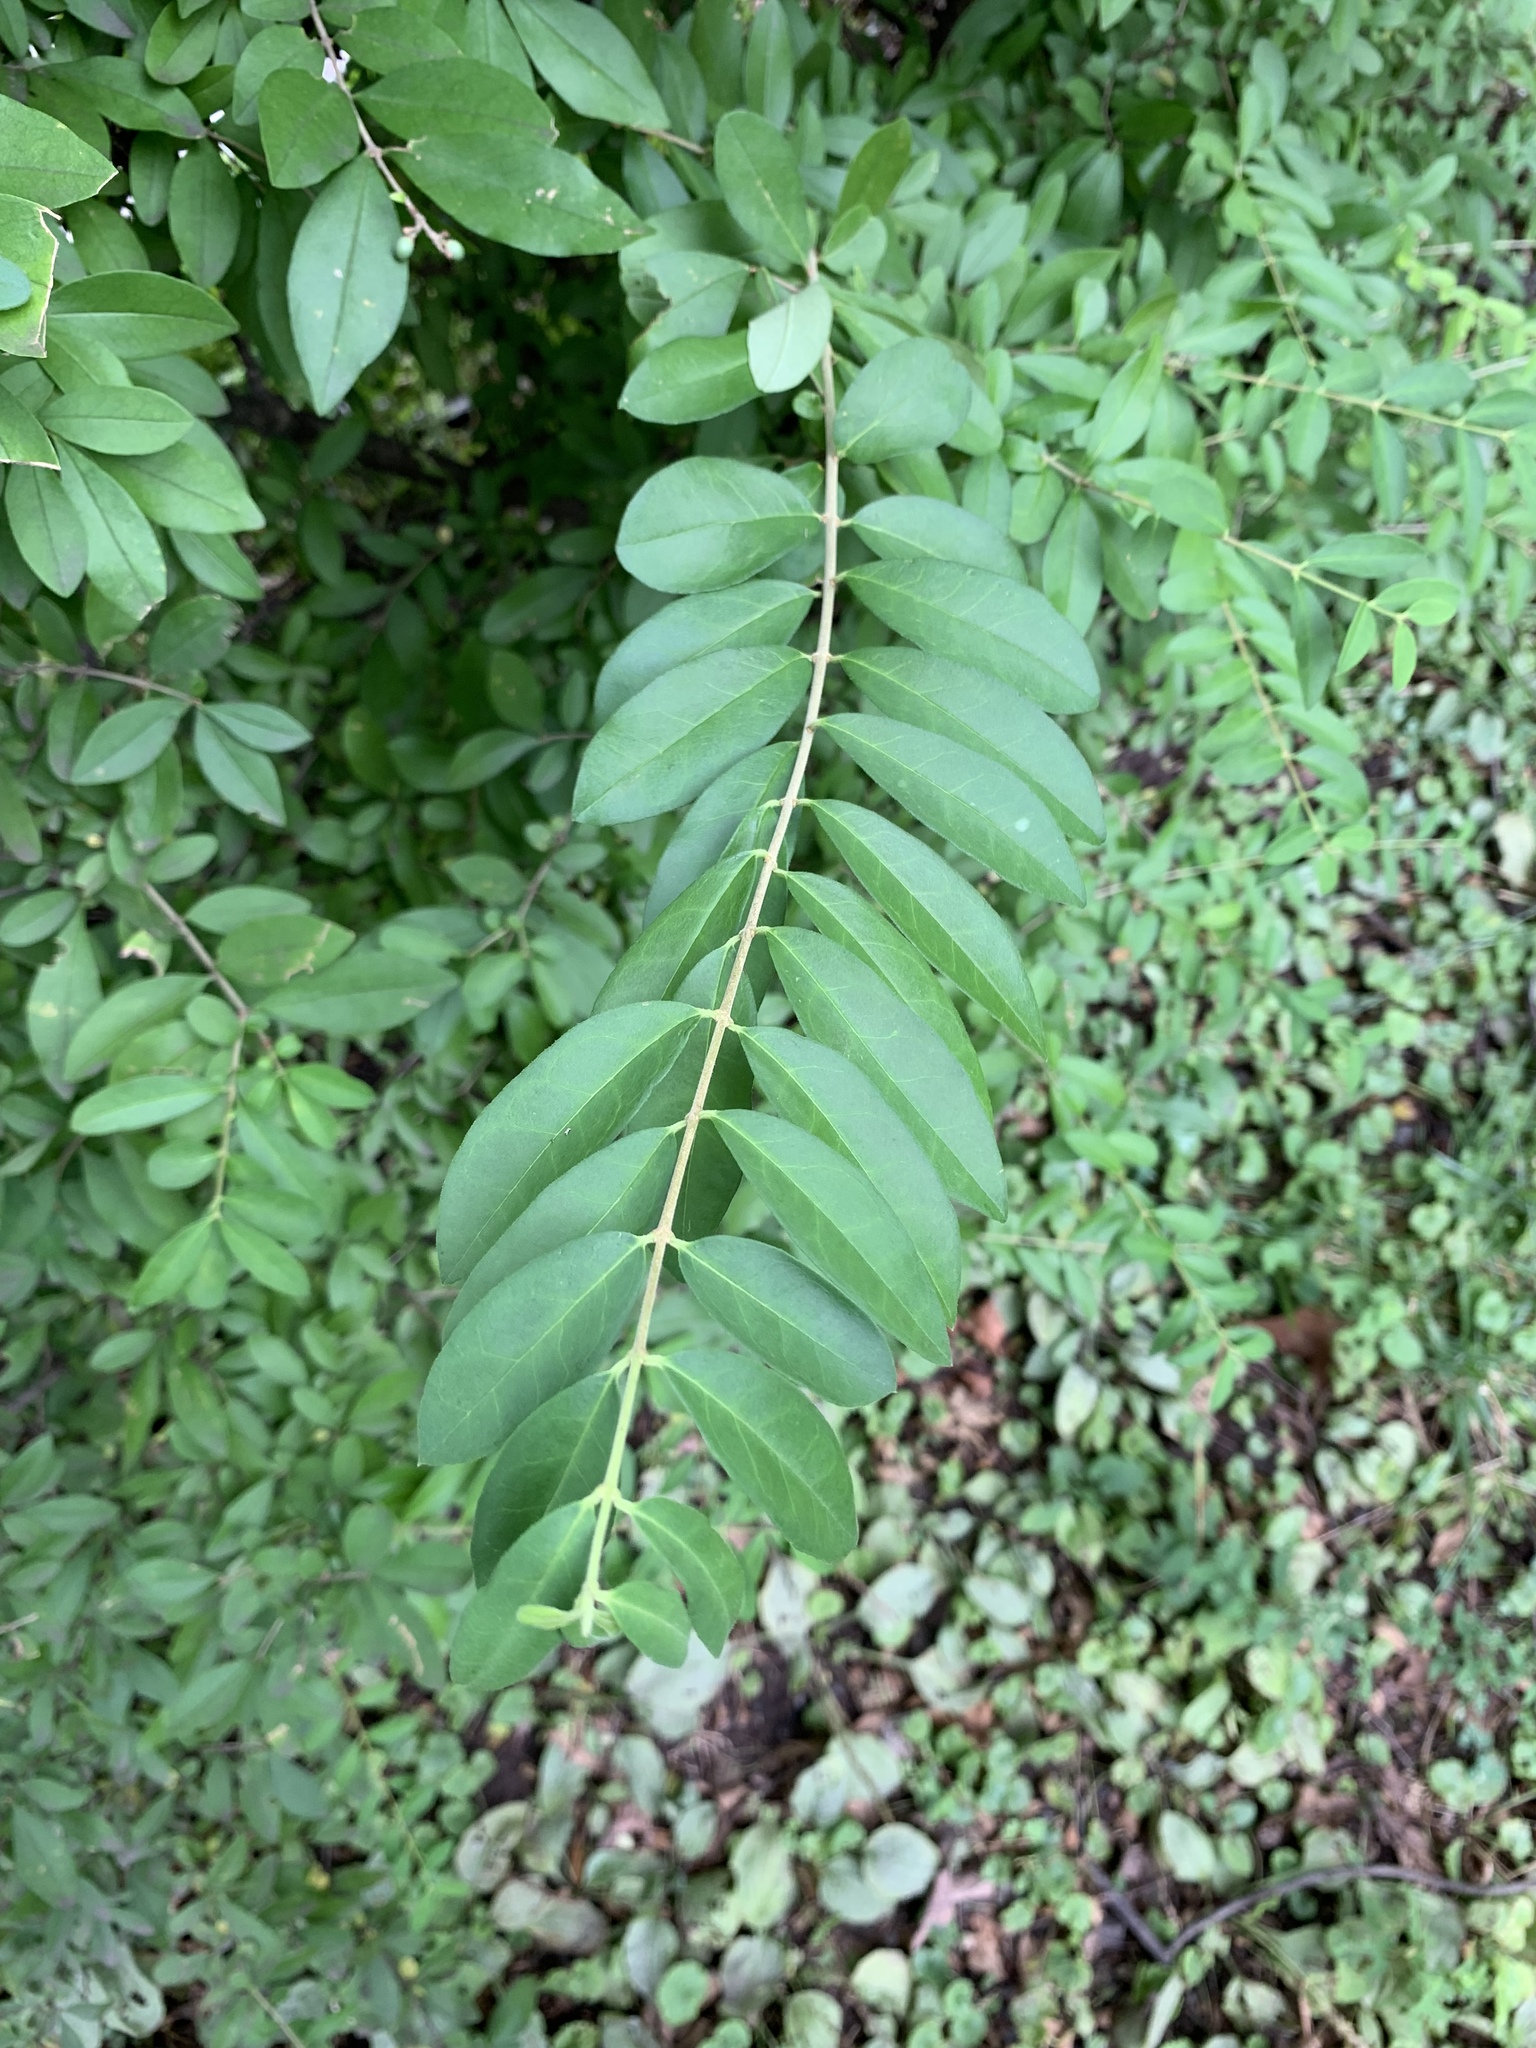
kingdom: Plantae
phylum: Tracheophyta
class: Magnoliopsida
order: Lamiales
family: Oleaceae
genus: Ligustrum
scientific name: Ligustrum obtusifolium
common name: Border privet
